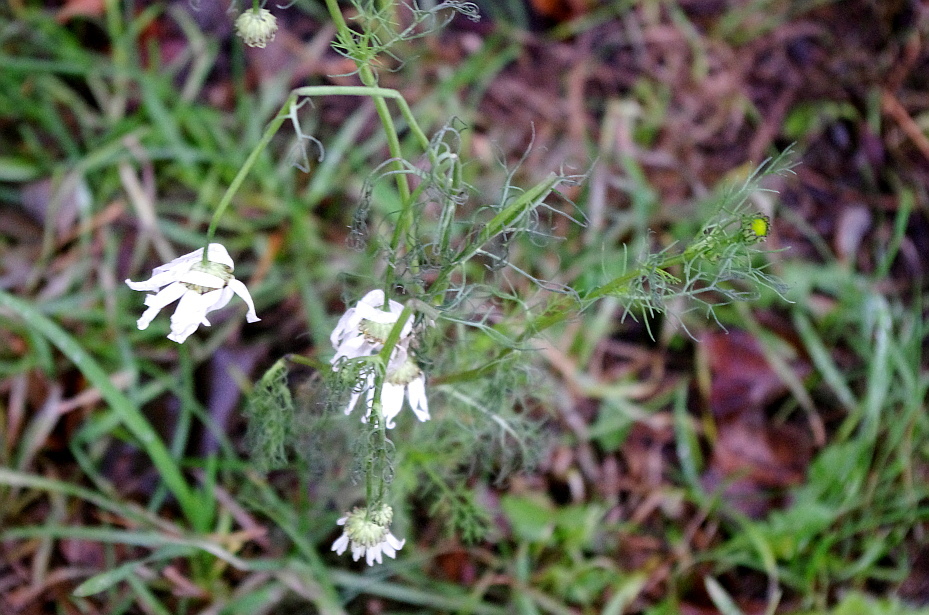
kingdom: Plantae
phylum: Tracheophyta
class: Magnoliopsida
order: Asterales
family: Asteraceae
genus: Tripleurospermum
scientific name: Tripleurospermum inodorum
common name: Scentless mayweed
